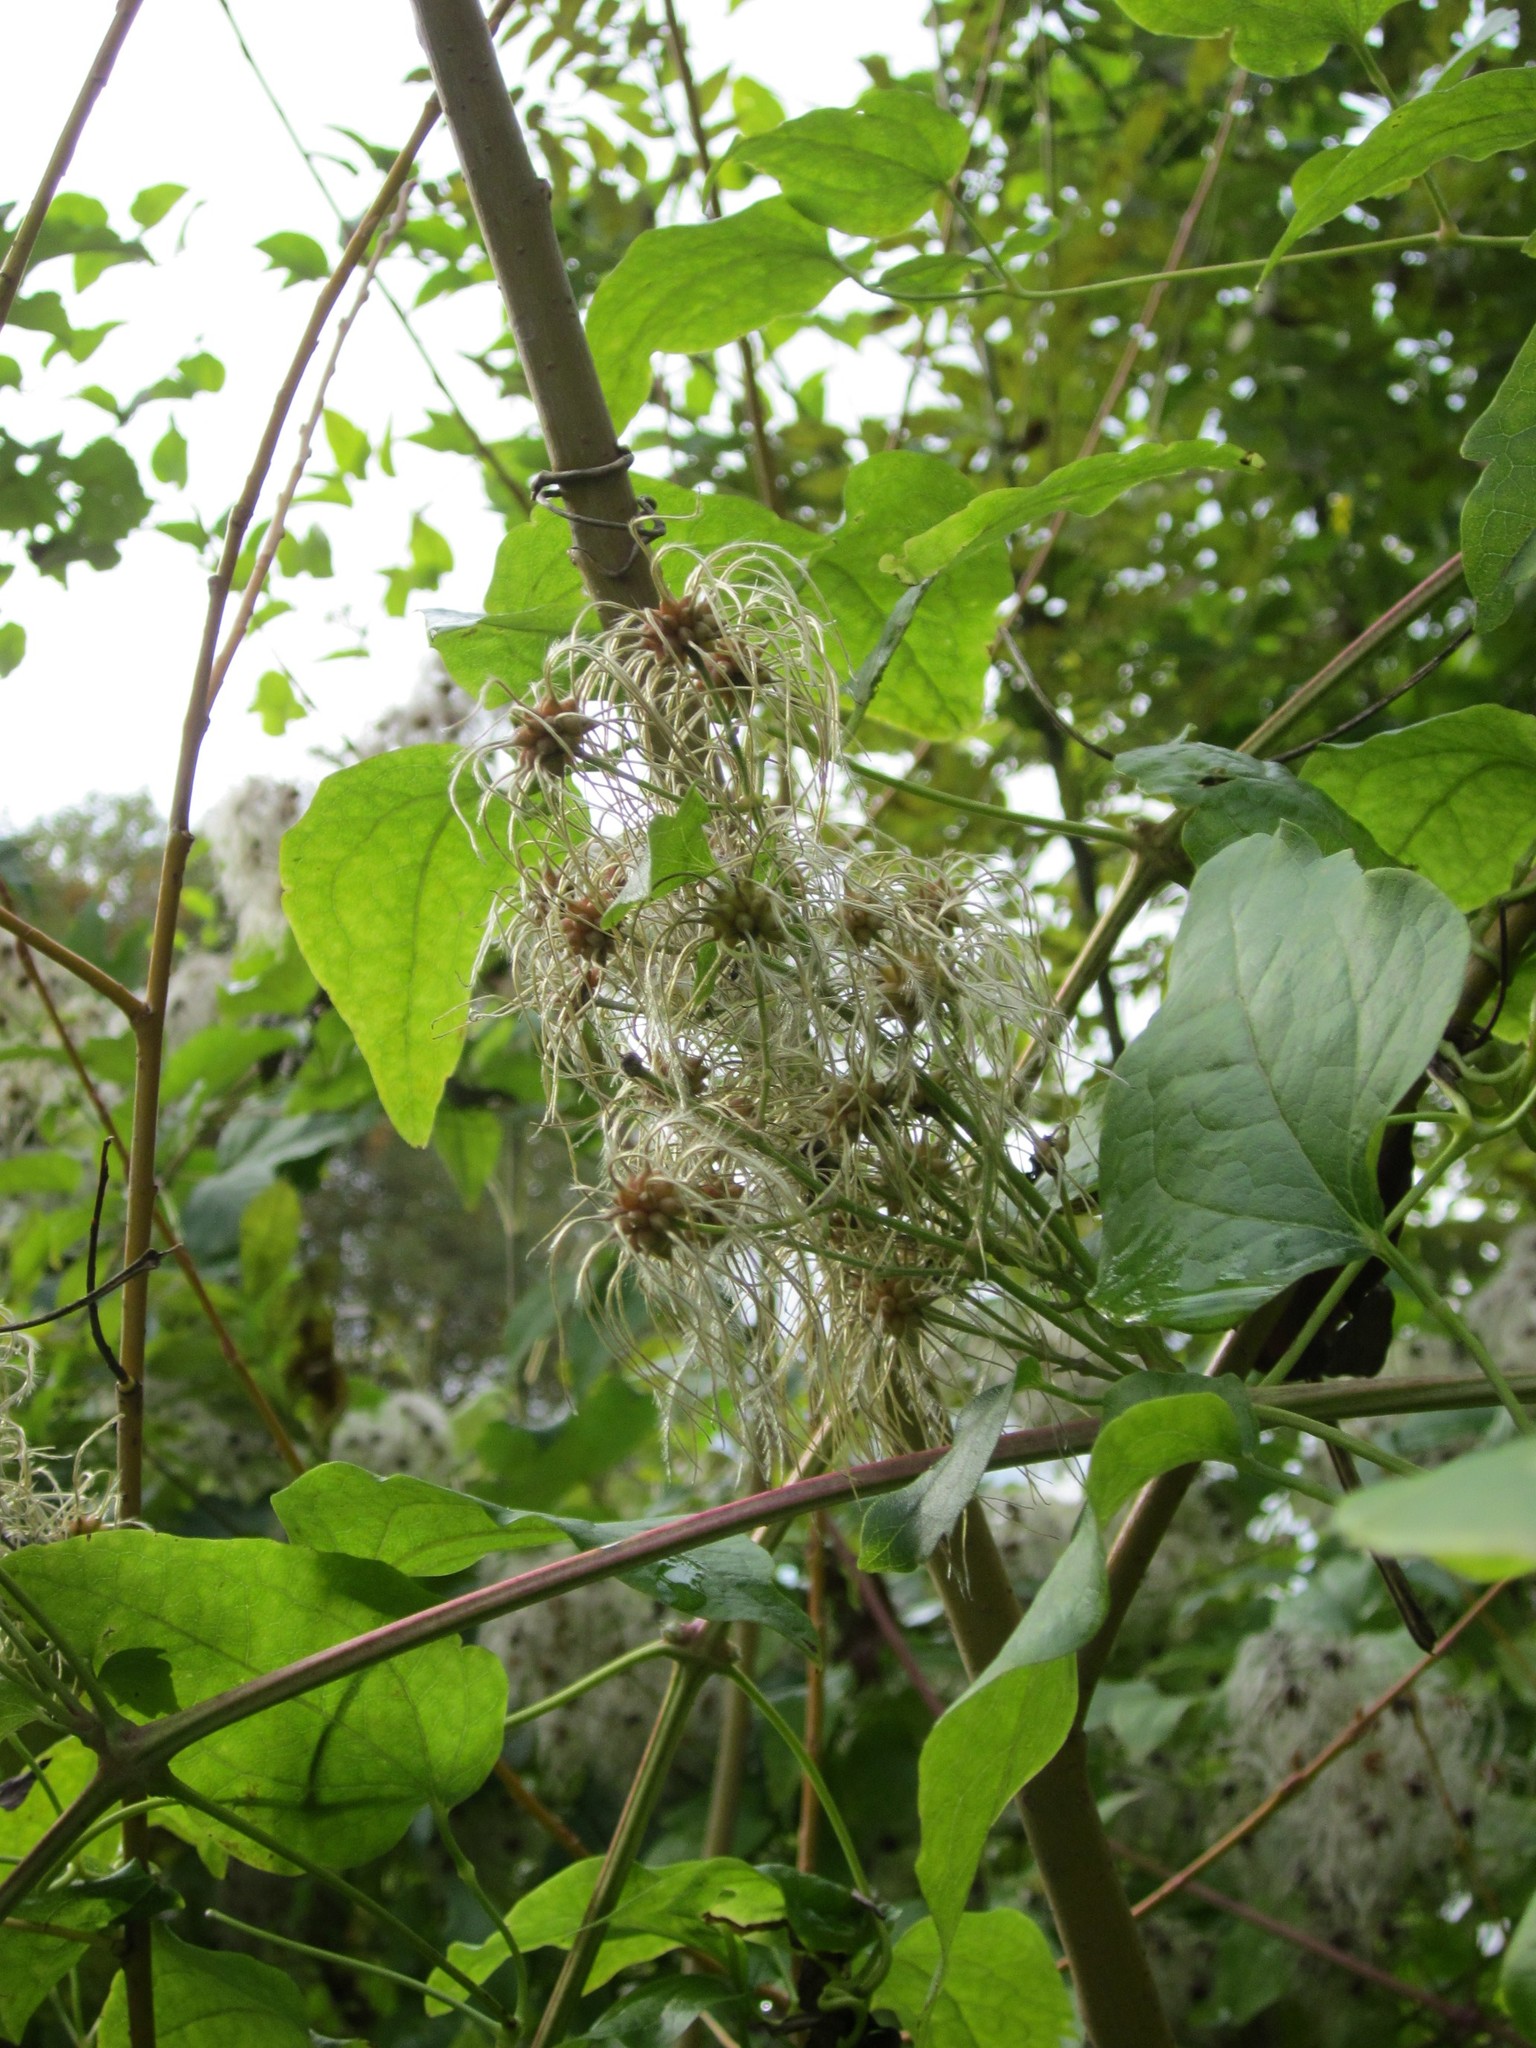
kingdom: Plantae
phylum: Tracheophyta
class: Magnoliopsida
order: Ranunculales
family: Ranunculaceae
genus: Clematis
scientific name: Clematis vitalba
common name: Evergreen clematis
